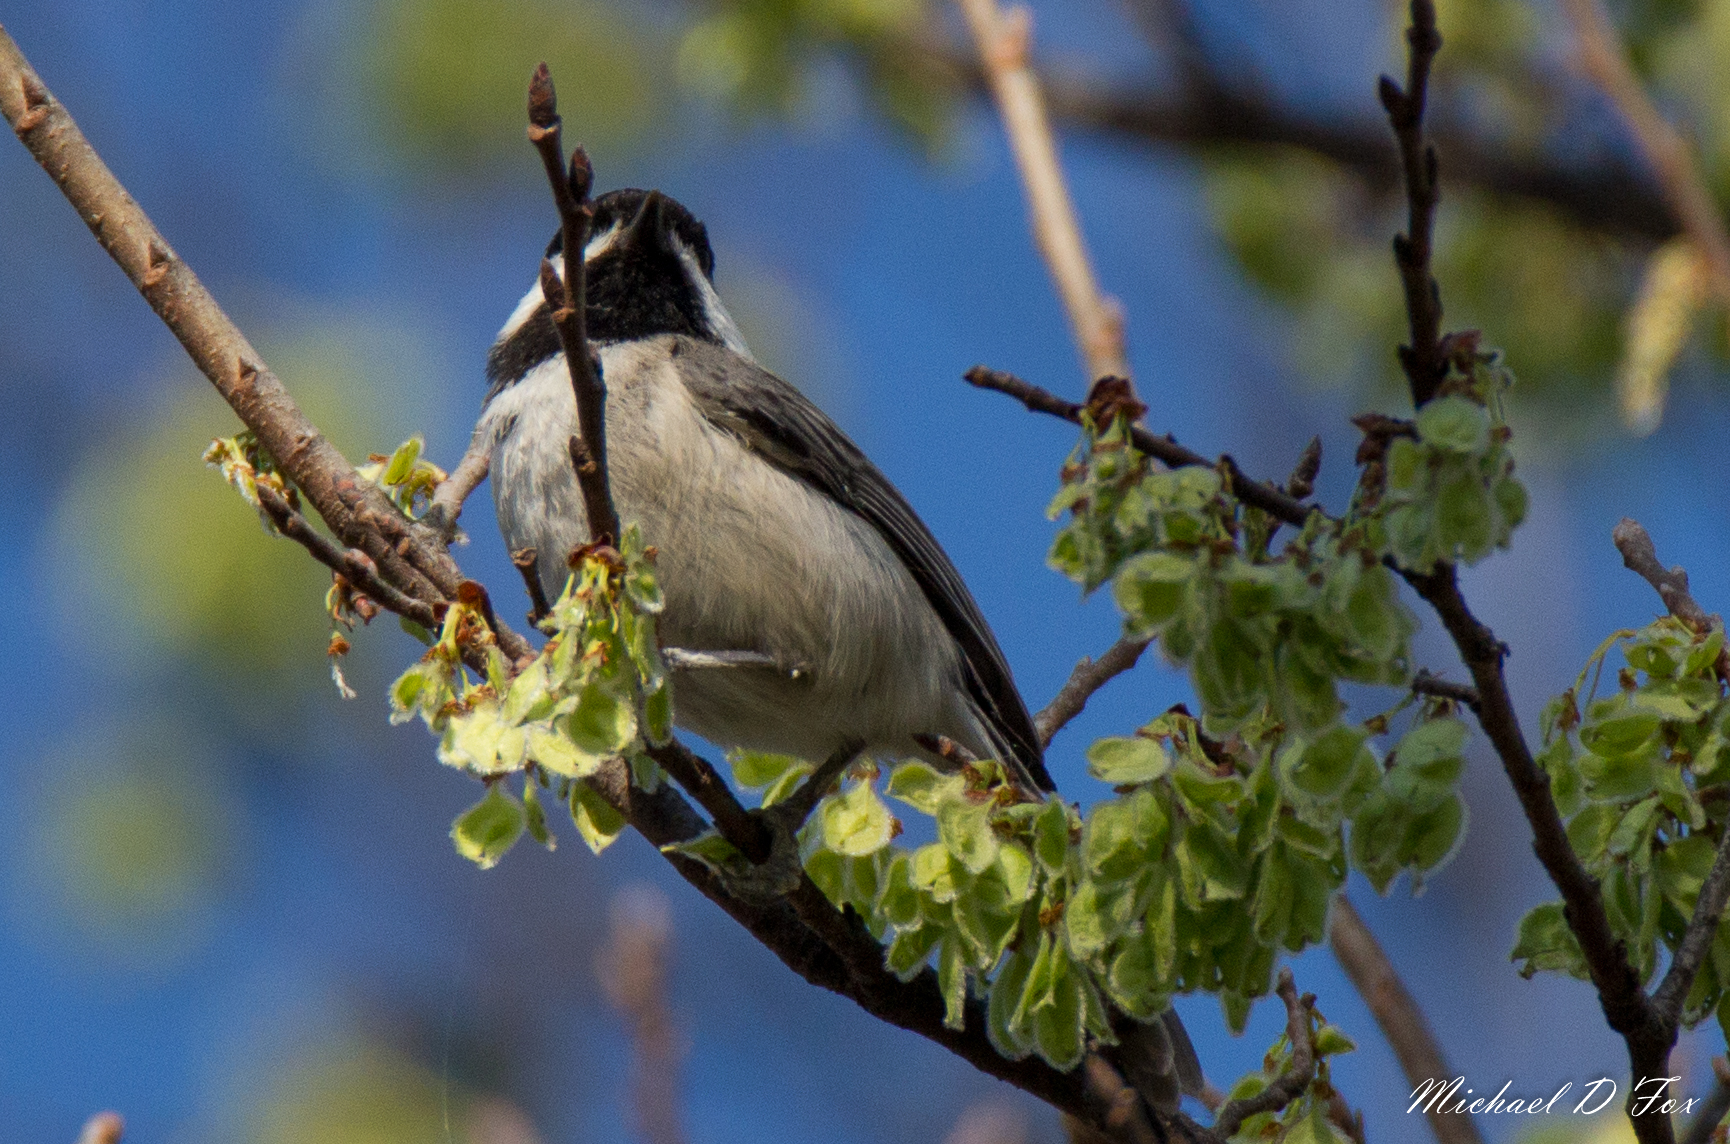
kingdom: Animalia
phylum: Chordata
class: Aves
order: Passeriformes
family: Paridae
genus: Poecile
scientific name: Poecile carolinensis
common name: Carolina chickadee
